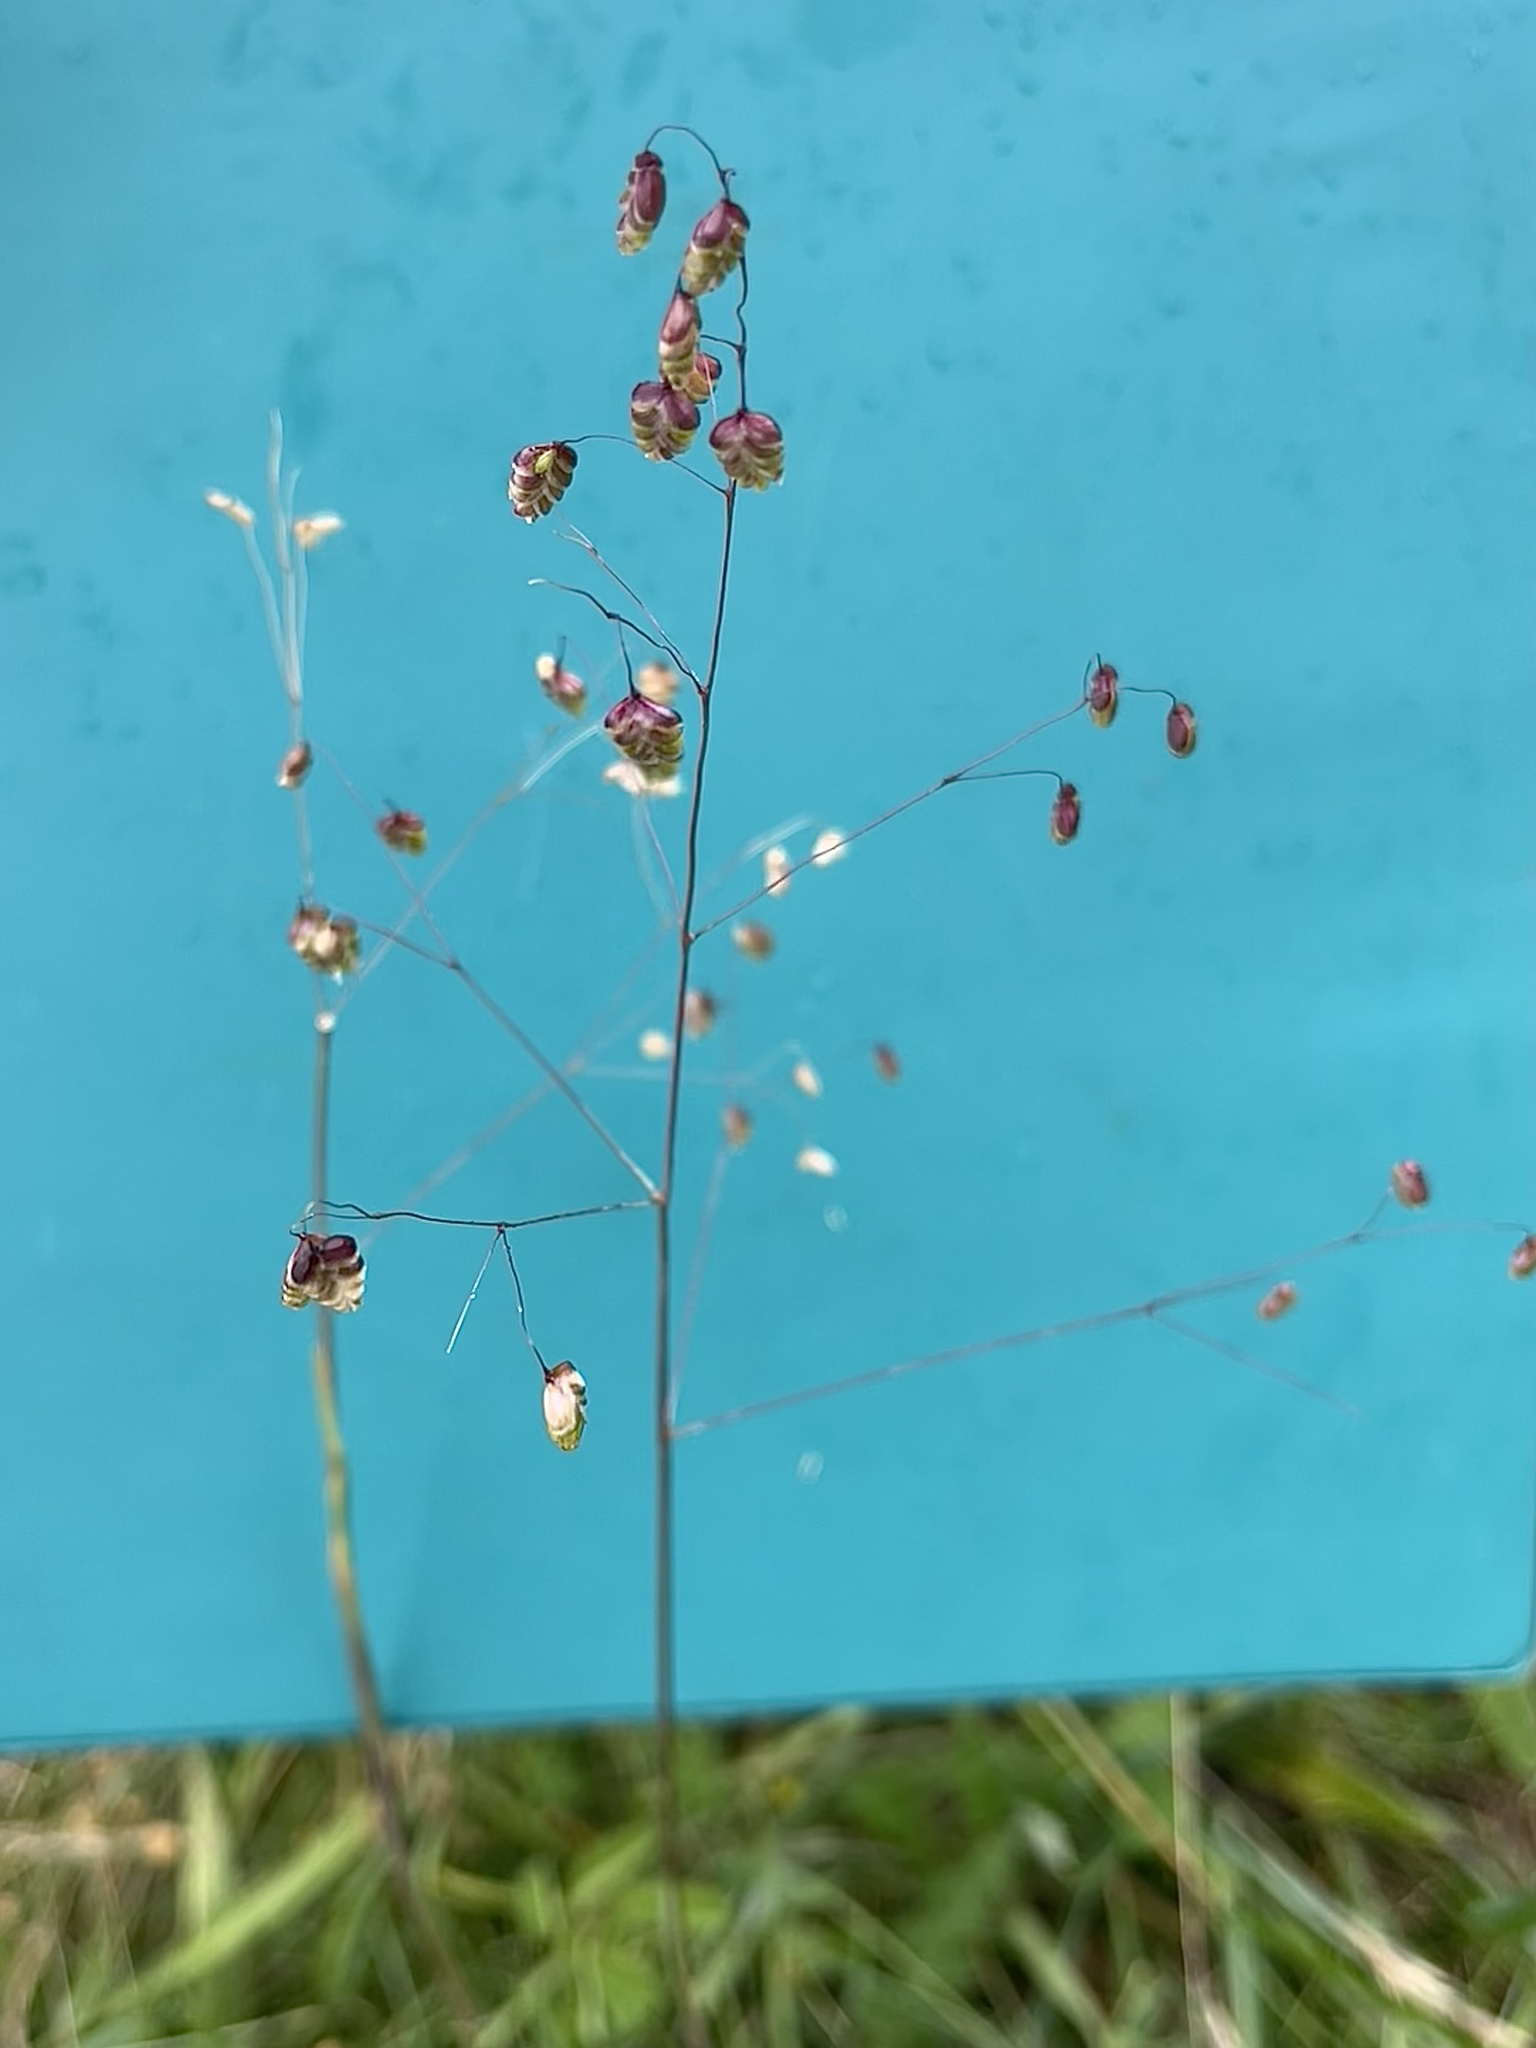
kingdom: Plantae
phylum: Tracheophyta
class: Liliopsida
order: Poales
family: Poaceae
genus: Briza
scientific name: Briza media
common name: Quaking grass
